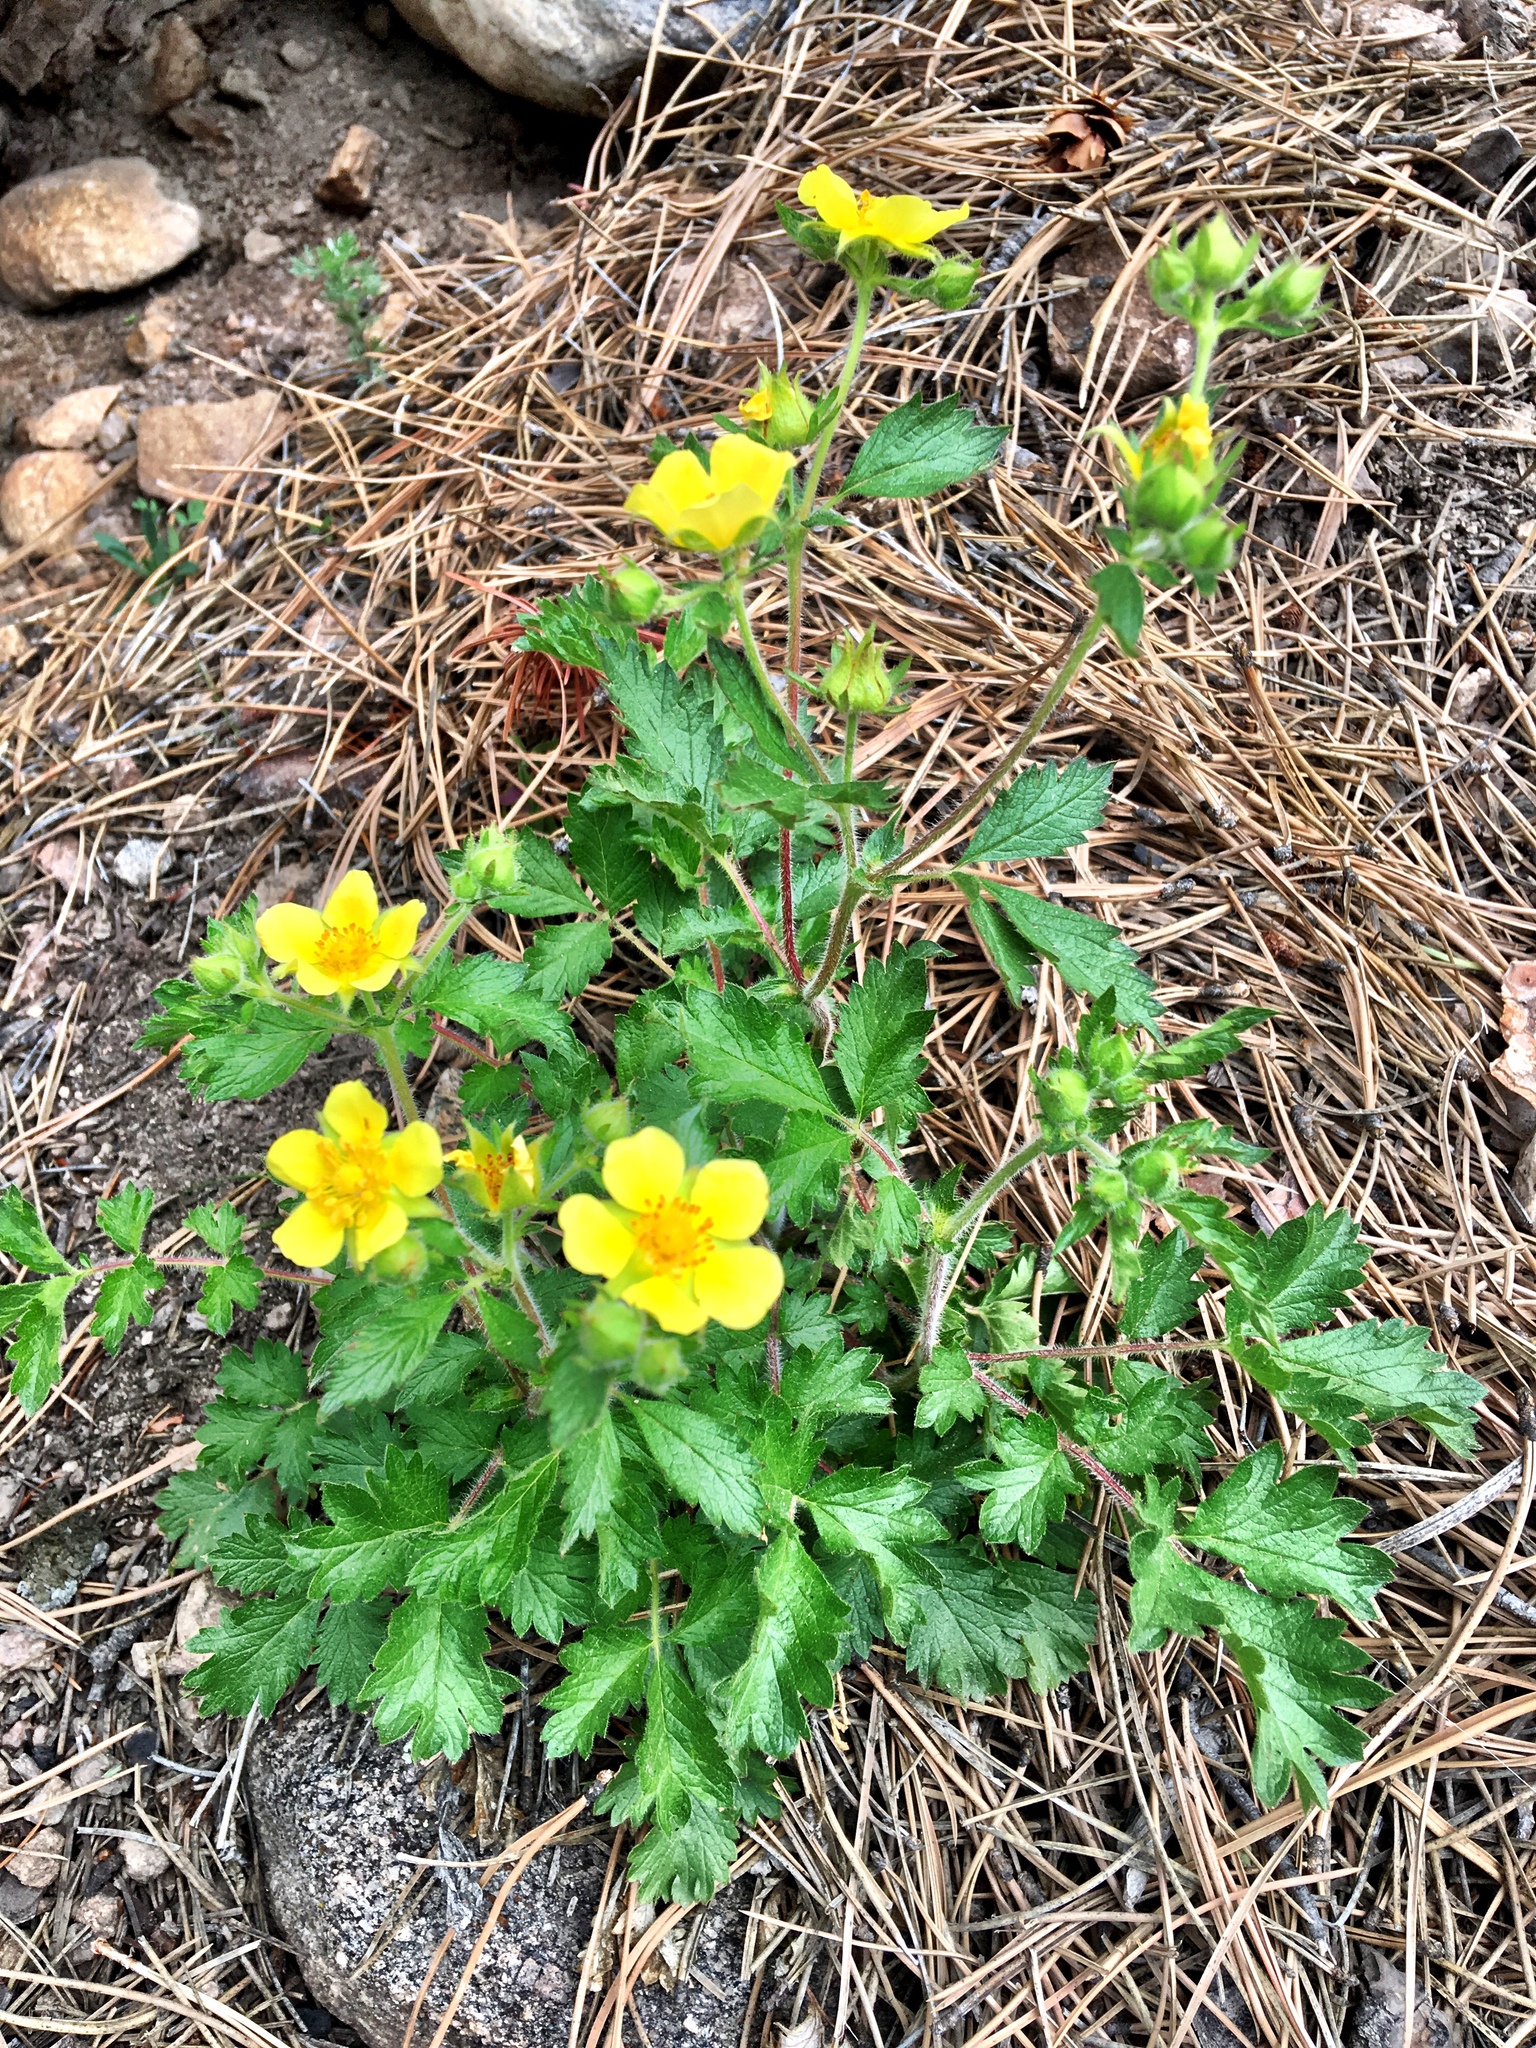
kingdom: Plantae
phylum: Tracheophyta
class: Magnoliopsida
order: Rosales
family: Rosaceae
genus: Drymocallis
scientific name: Drymocallis fissa
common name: Big-flowered cinquefoil
